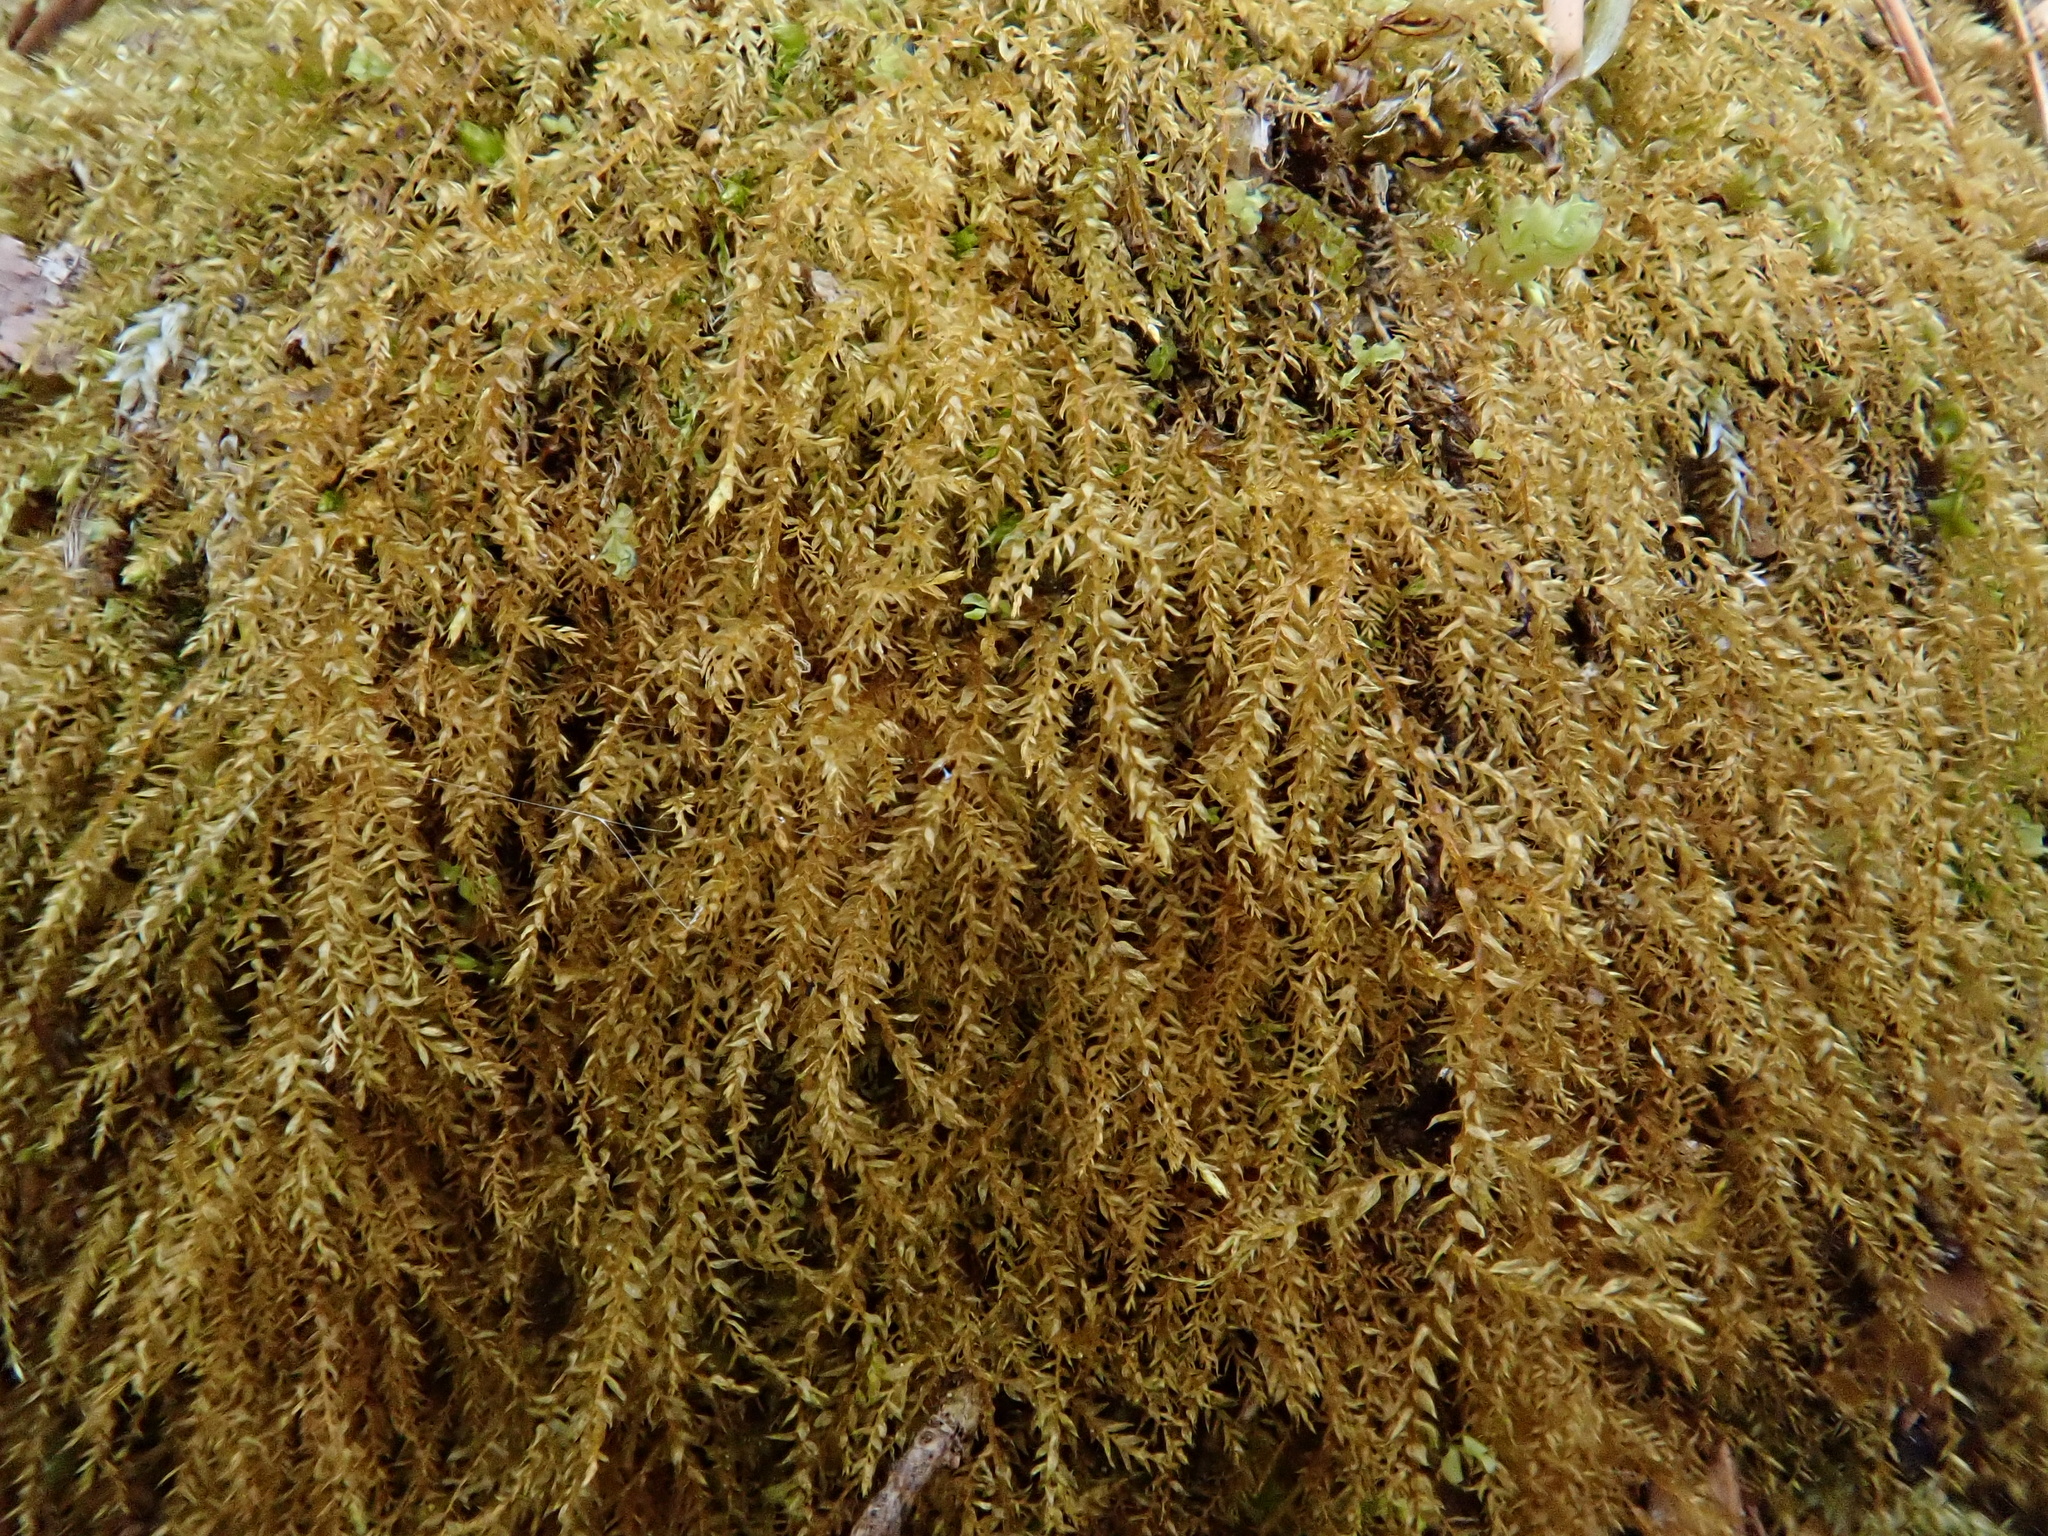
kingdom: Plantae
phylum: Bryophyta
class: Bryopsida
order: Hypnales
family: Brachytheciaceae
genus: Oxyrrhynchium
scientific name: Oxyrrhynchium hians
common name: Spreading beaked moss
